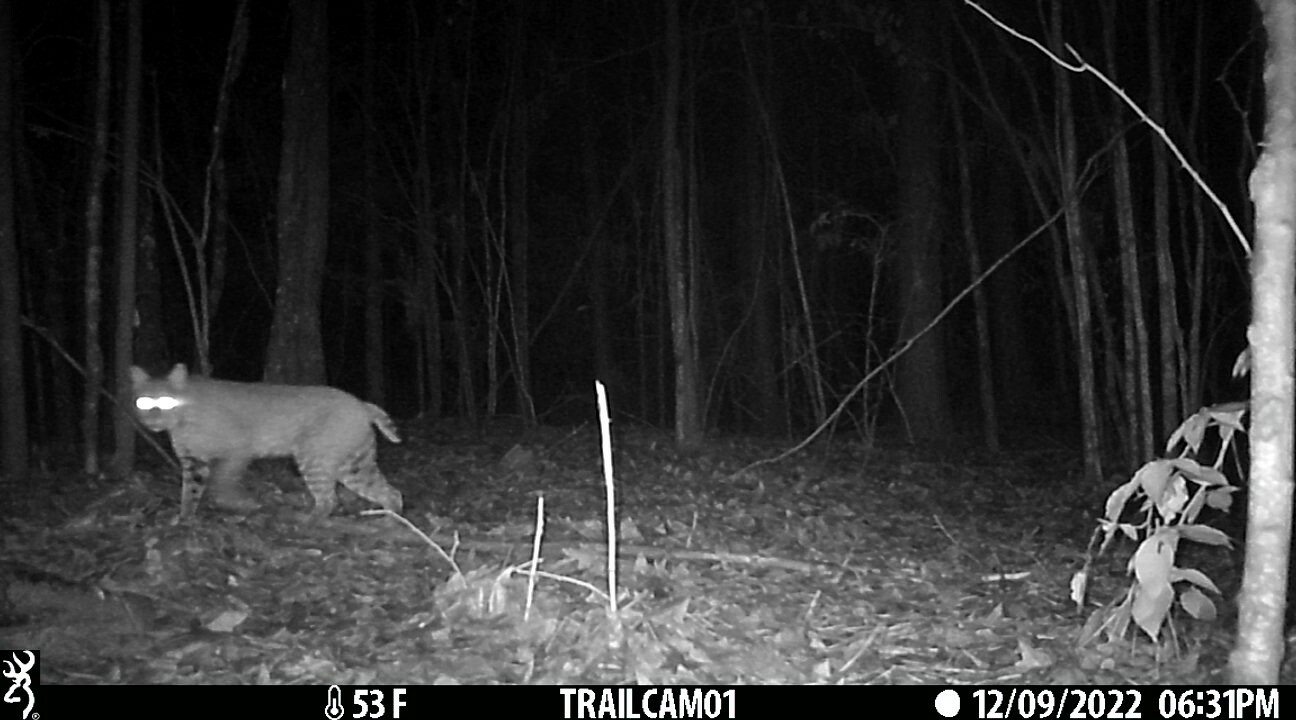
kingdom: Animalia
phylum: Chordata
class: Mammalia
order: Carnivora
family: Felidae
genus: Lynx
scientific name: Lynx rufus
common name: Bobcat
